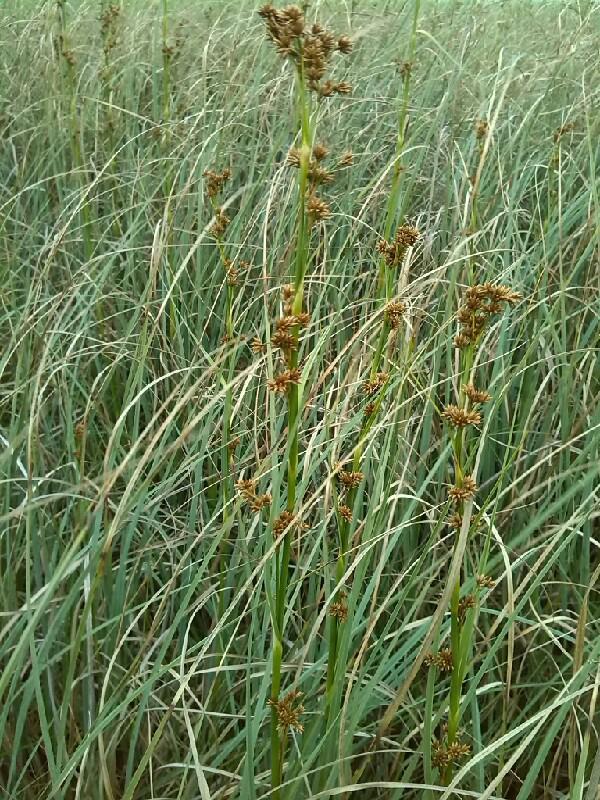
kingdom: Plantae
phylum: Tracheophyta
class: Liliopsida
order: Poales
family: Cyperaceae
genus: Cladium
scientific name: Cladium mariscus
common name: Great fen-sedge
